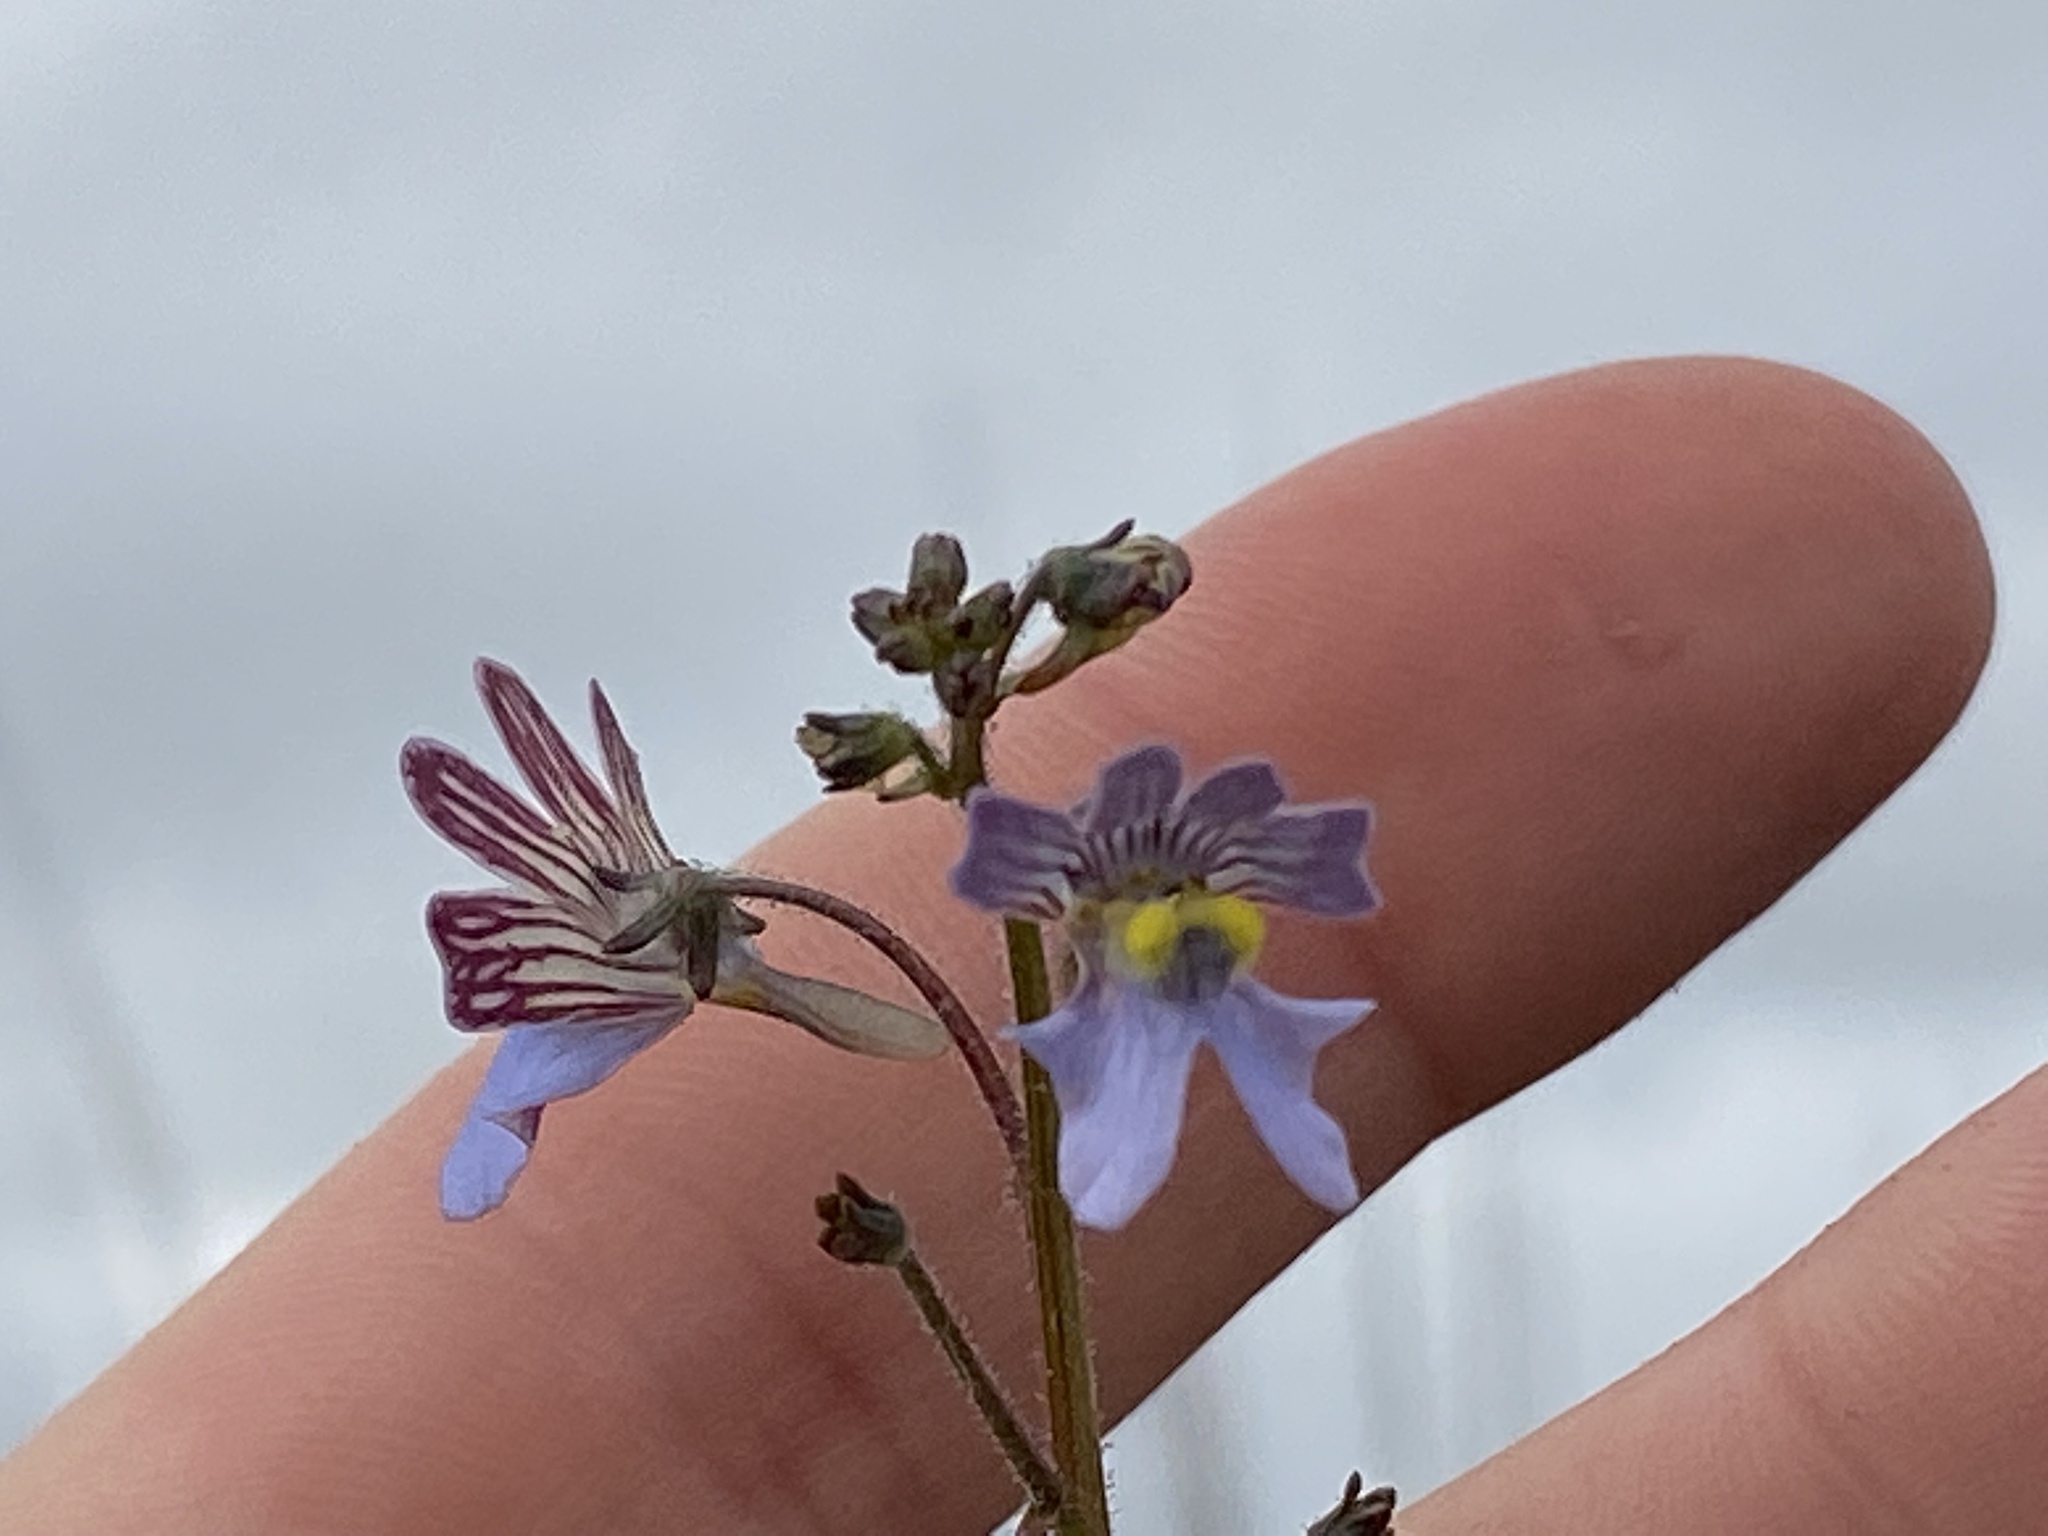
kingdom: Plantae
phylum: Tracheophyta
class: Magnoliopsida
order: Lamiales
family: Scrophulariaceae
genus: Nemesia
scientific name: Nemesia affinis
